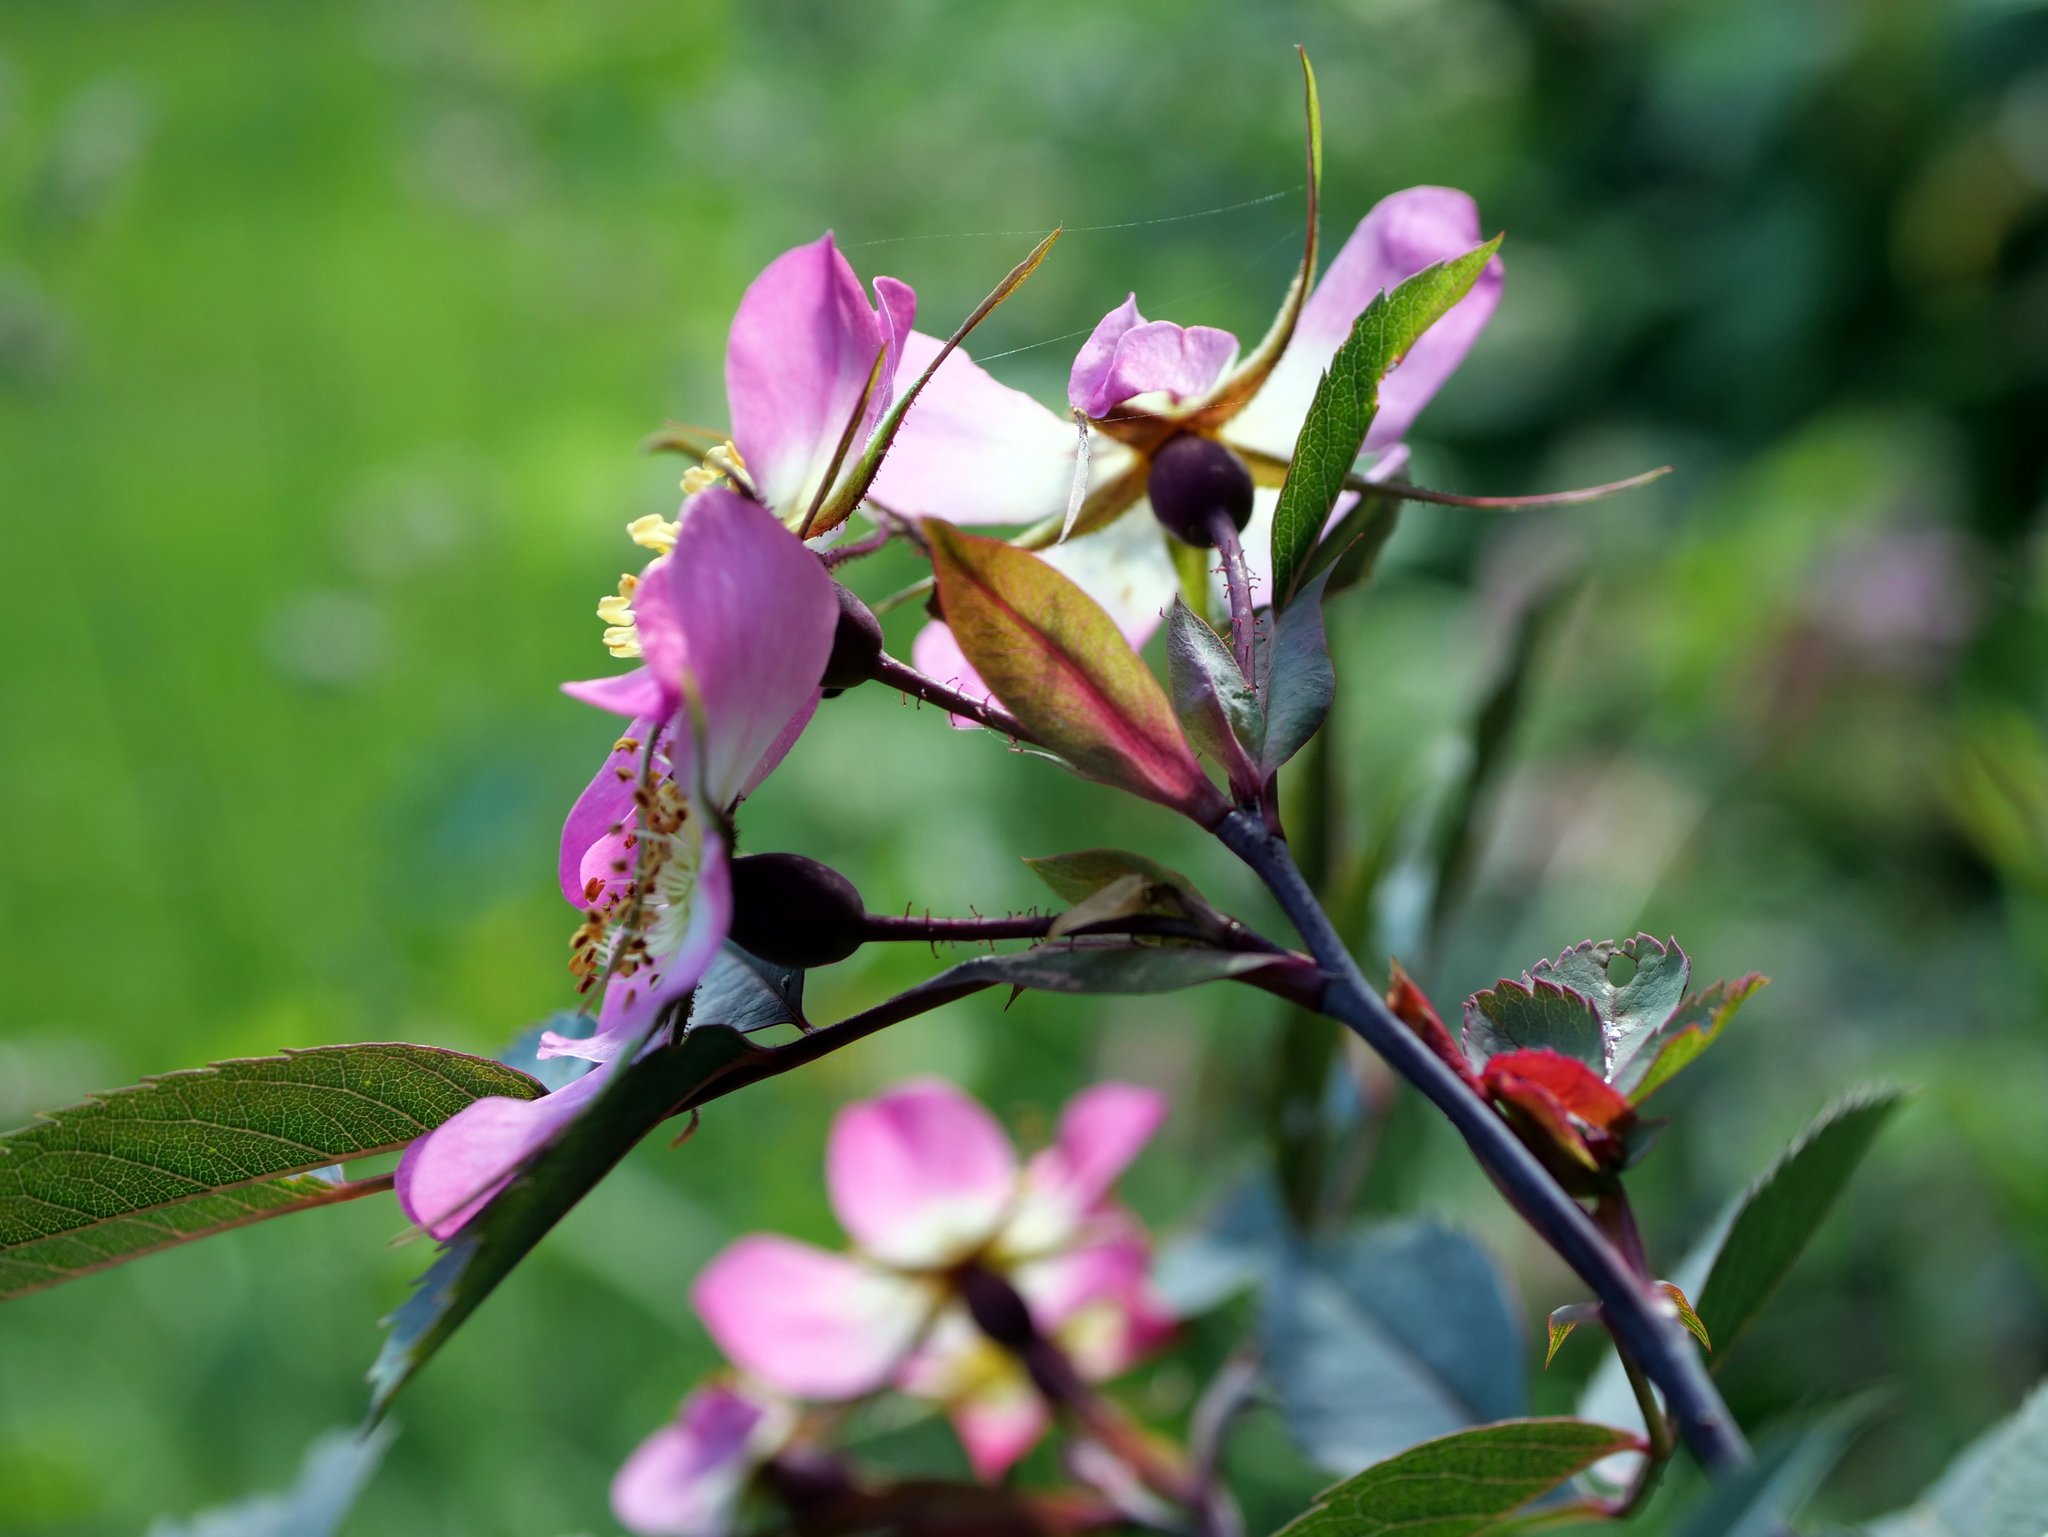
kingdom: Plantae
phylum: Tracheophyta
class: Magnoliopsida
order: Rosales
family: Rosaceae
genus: Rosa
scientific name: Rosa glauca
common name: Redleaf rose
